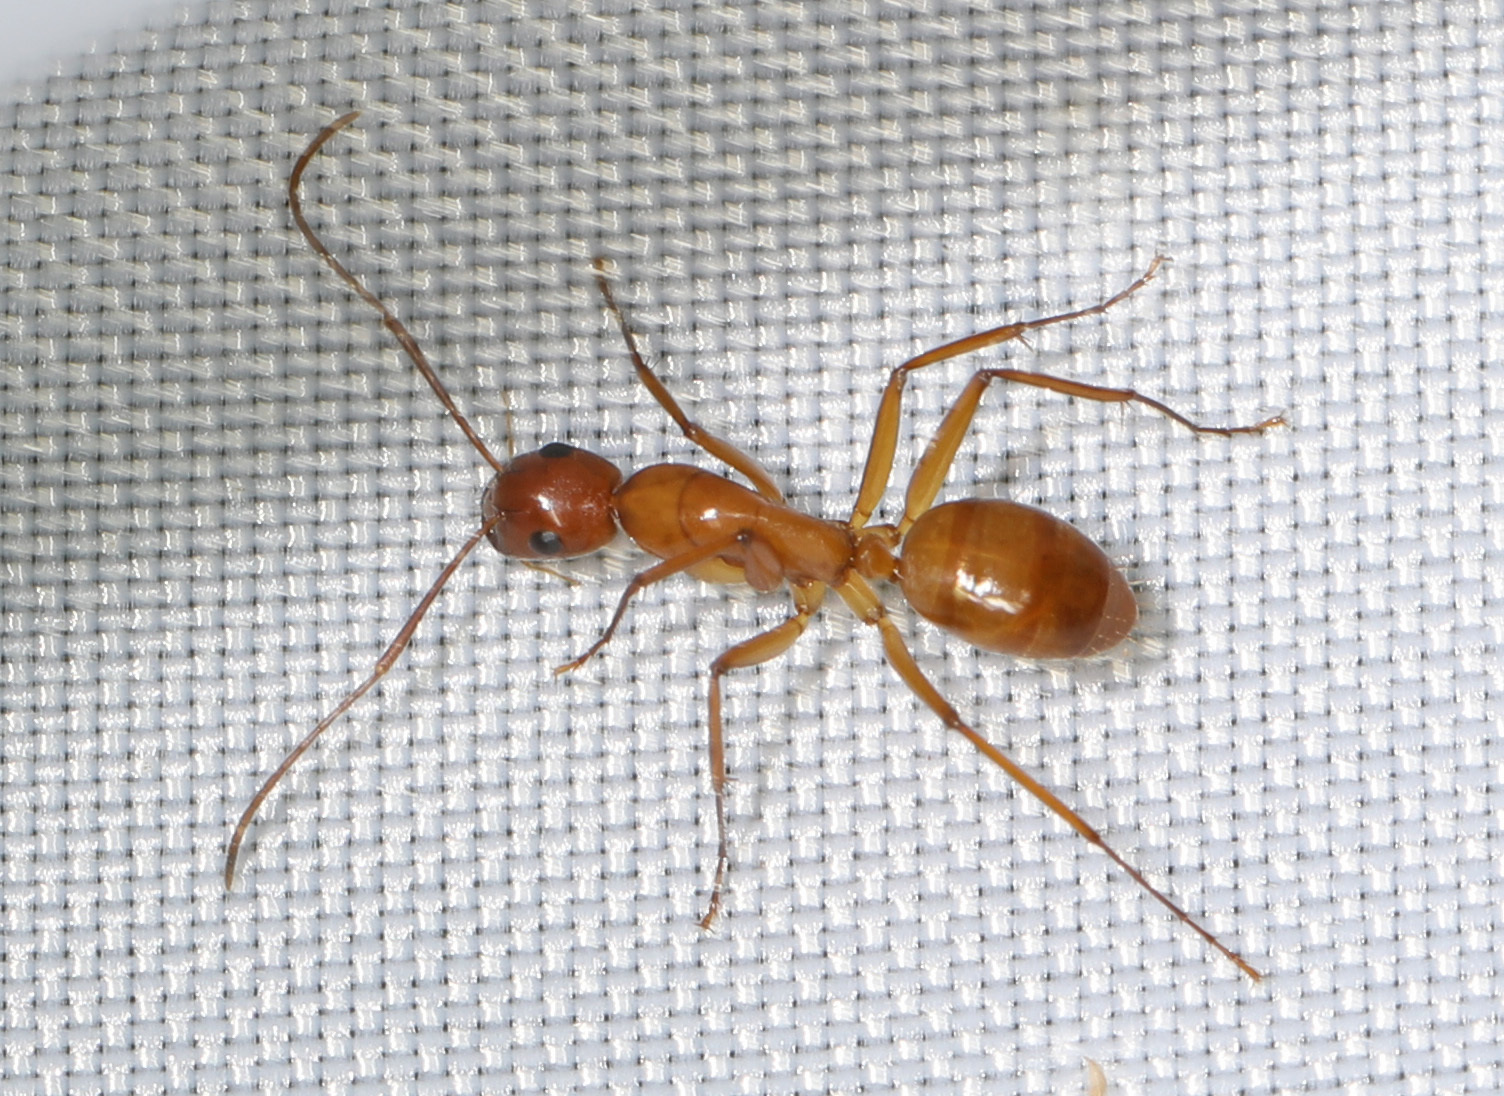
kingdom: Animalia
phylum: Arthropoda
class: Insecta
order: Hymenoptera
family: Formicidae
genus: Camponotus
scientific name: Camponotus castaneus
